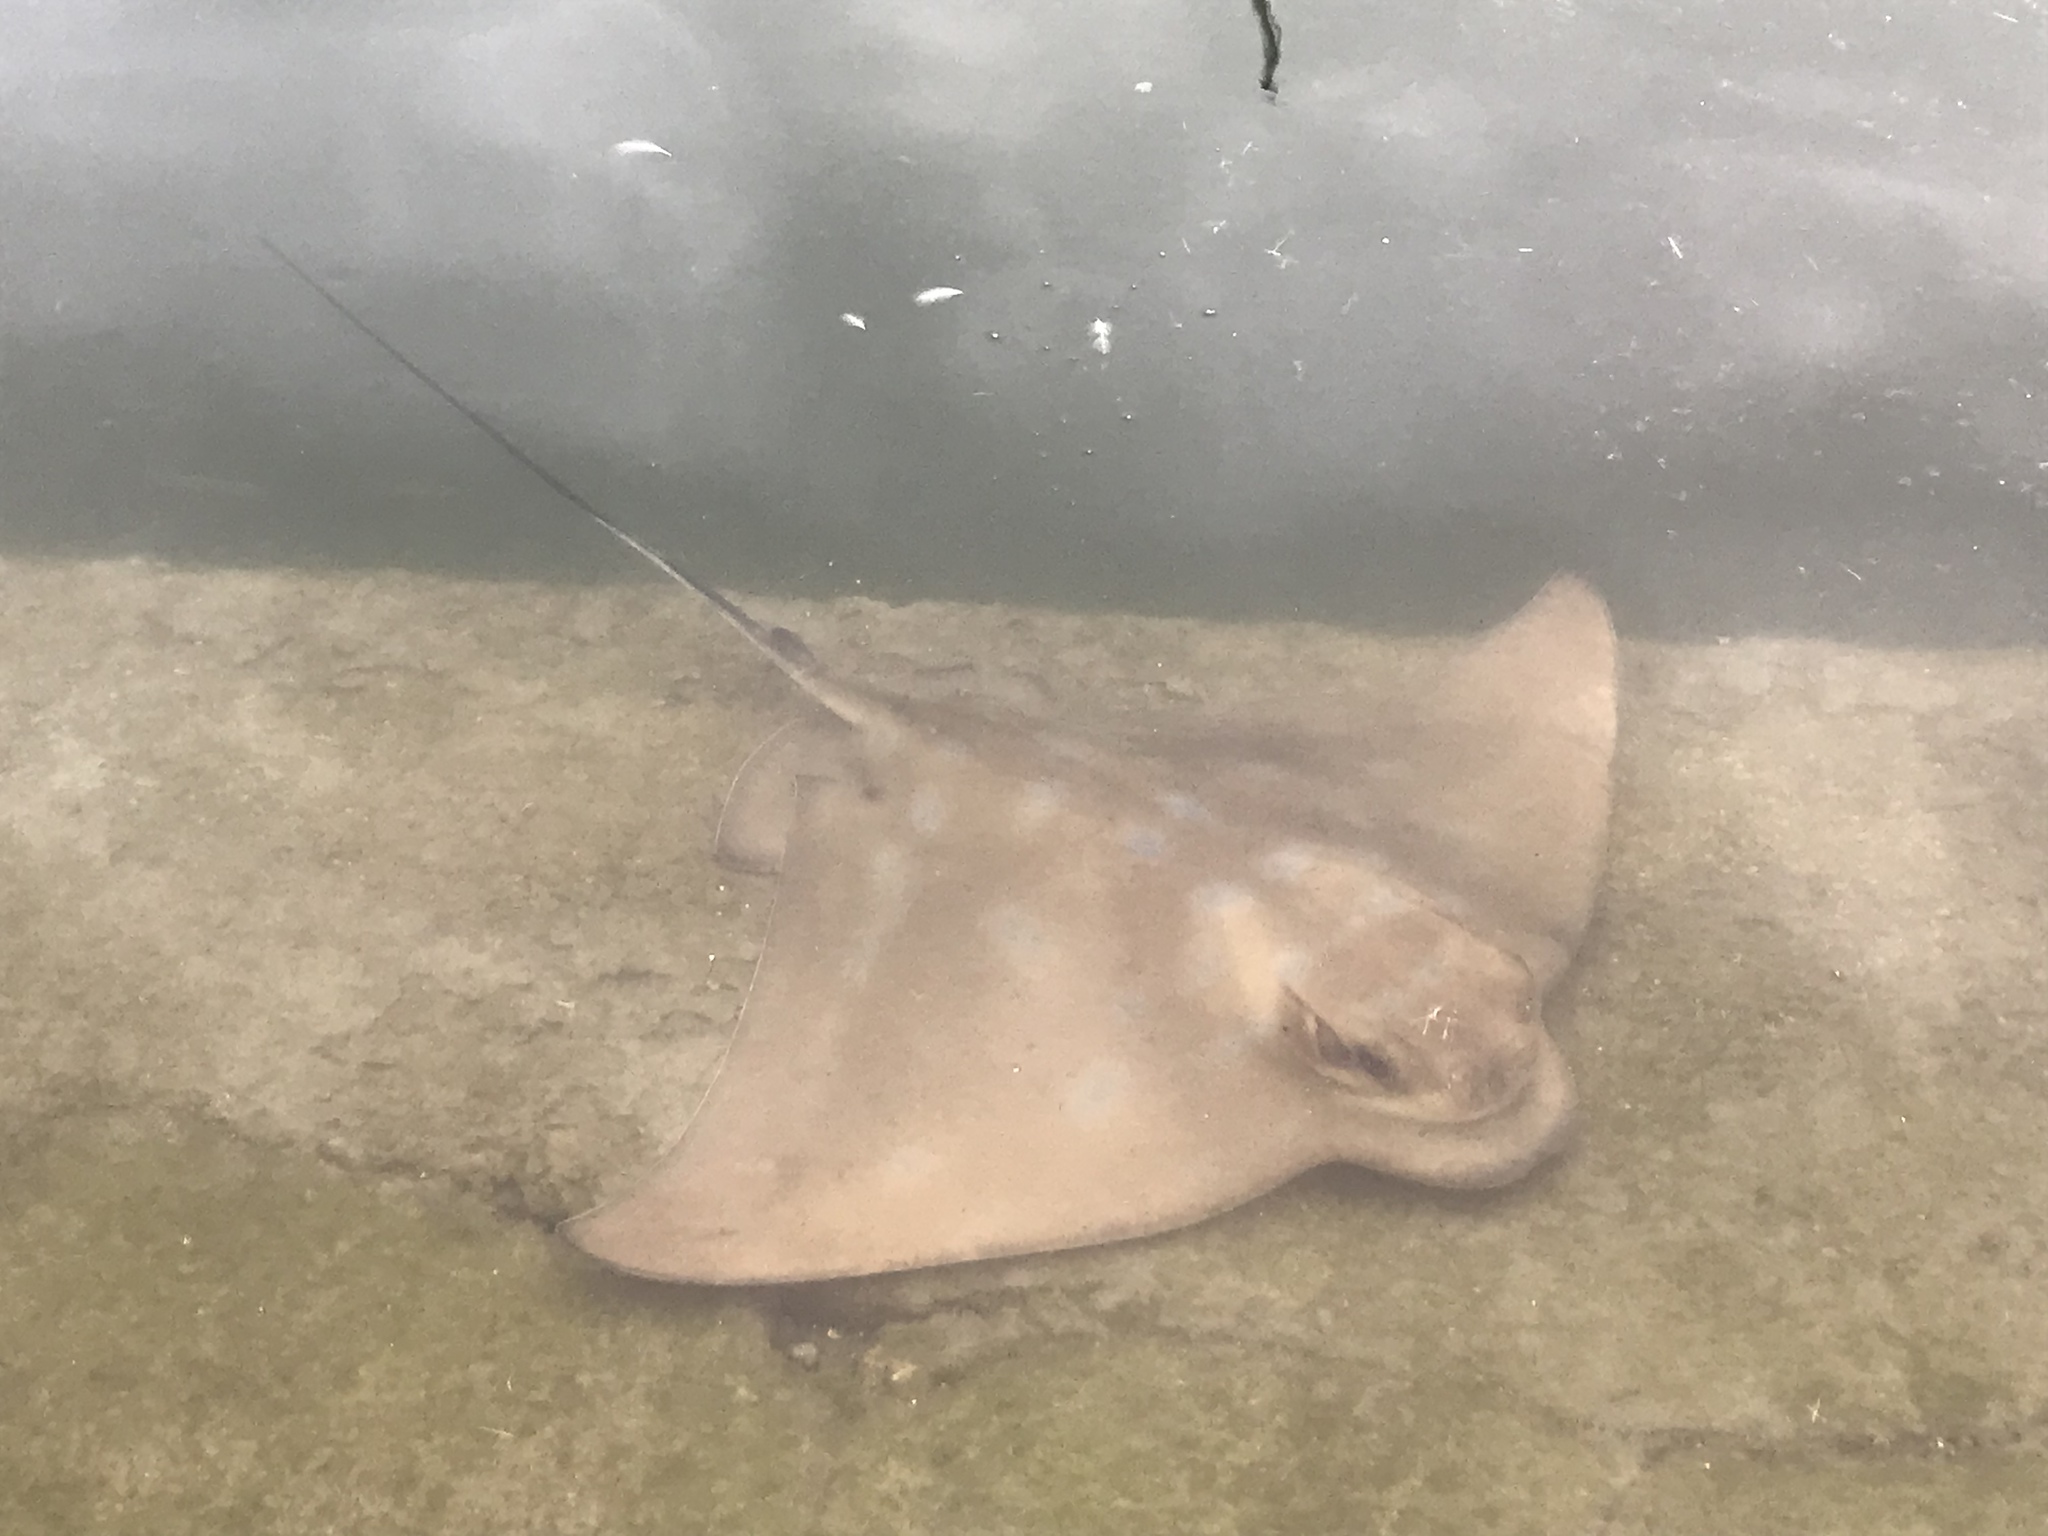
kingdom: Animalia
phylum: Chordata
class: Elasmobranchii
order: Myliobatiformes
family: Myliobatidae
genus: Myliobatis
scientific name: Myliobatis tenuicaudatus
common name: Eagle ray
